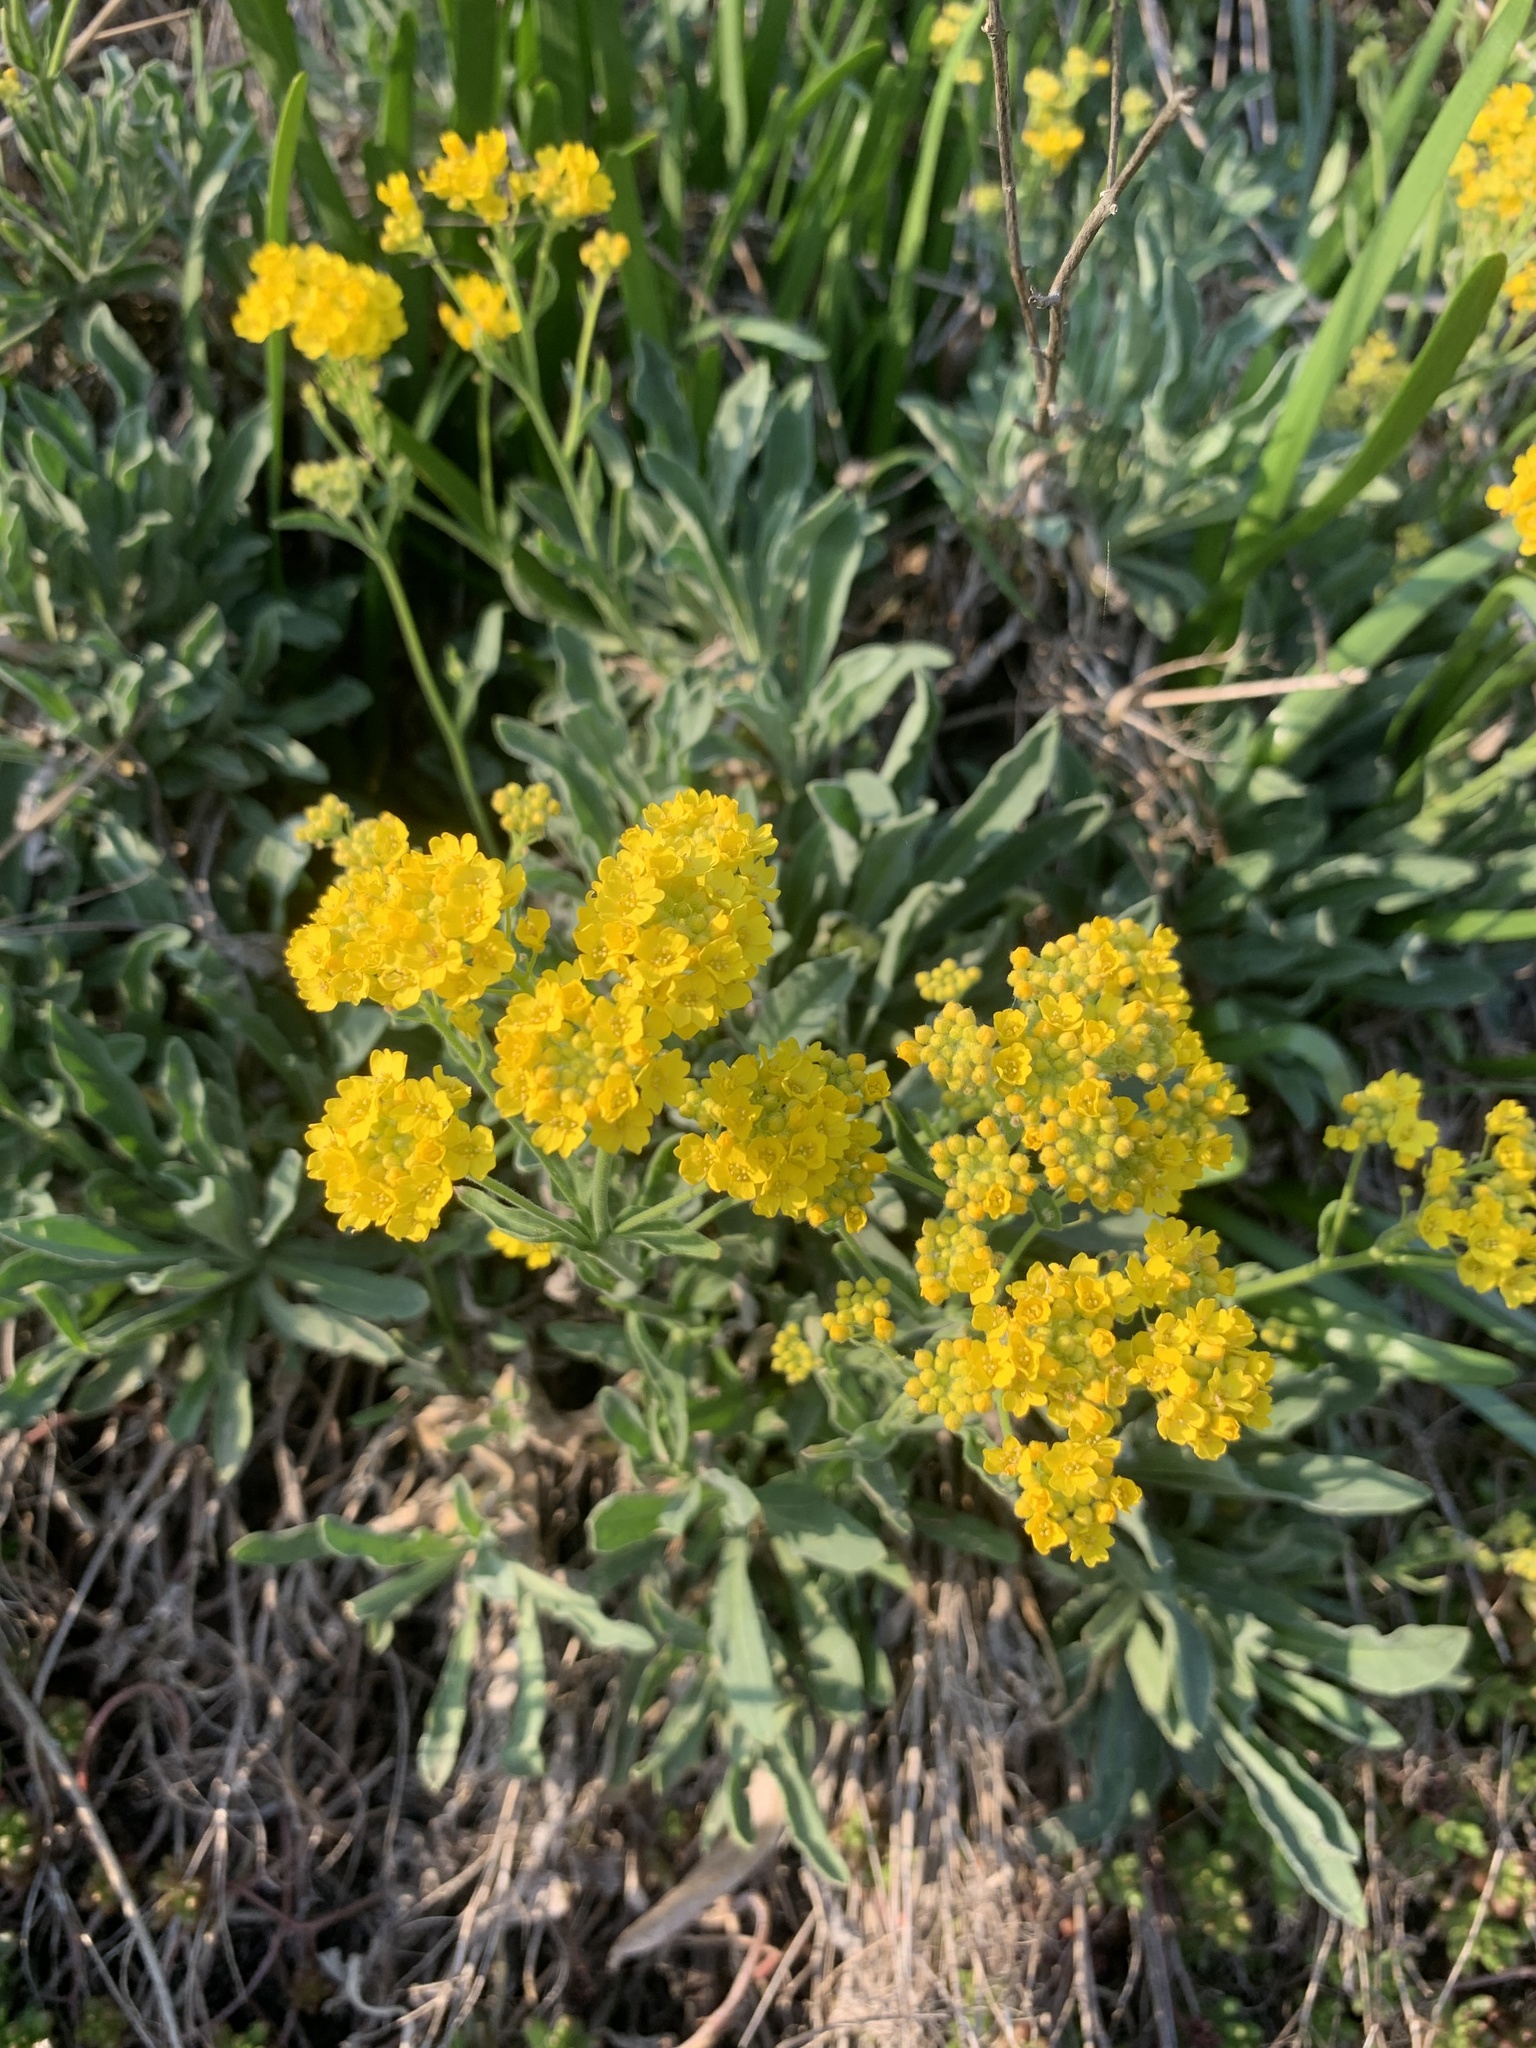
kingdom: Plantae
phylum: Tracheophyta
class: Magnoliopsida
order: Brassicales
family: Brassicaceae
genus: Aurinia
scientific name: Aurinia saxatilis
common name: Golden-tuft alyssum
